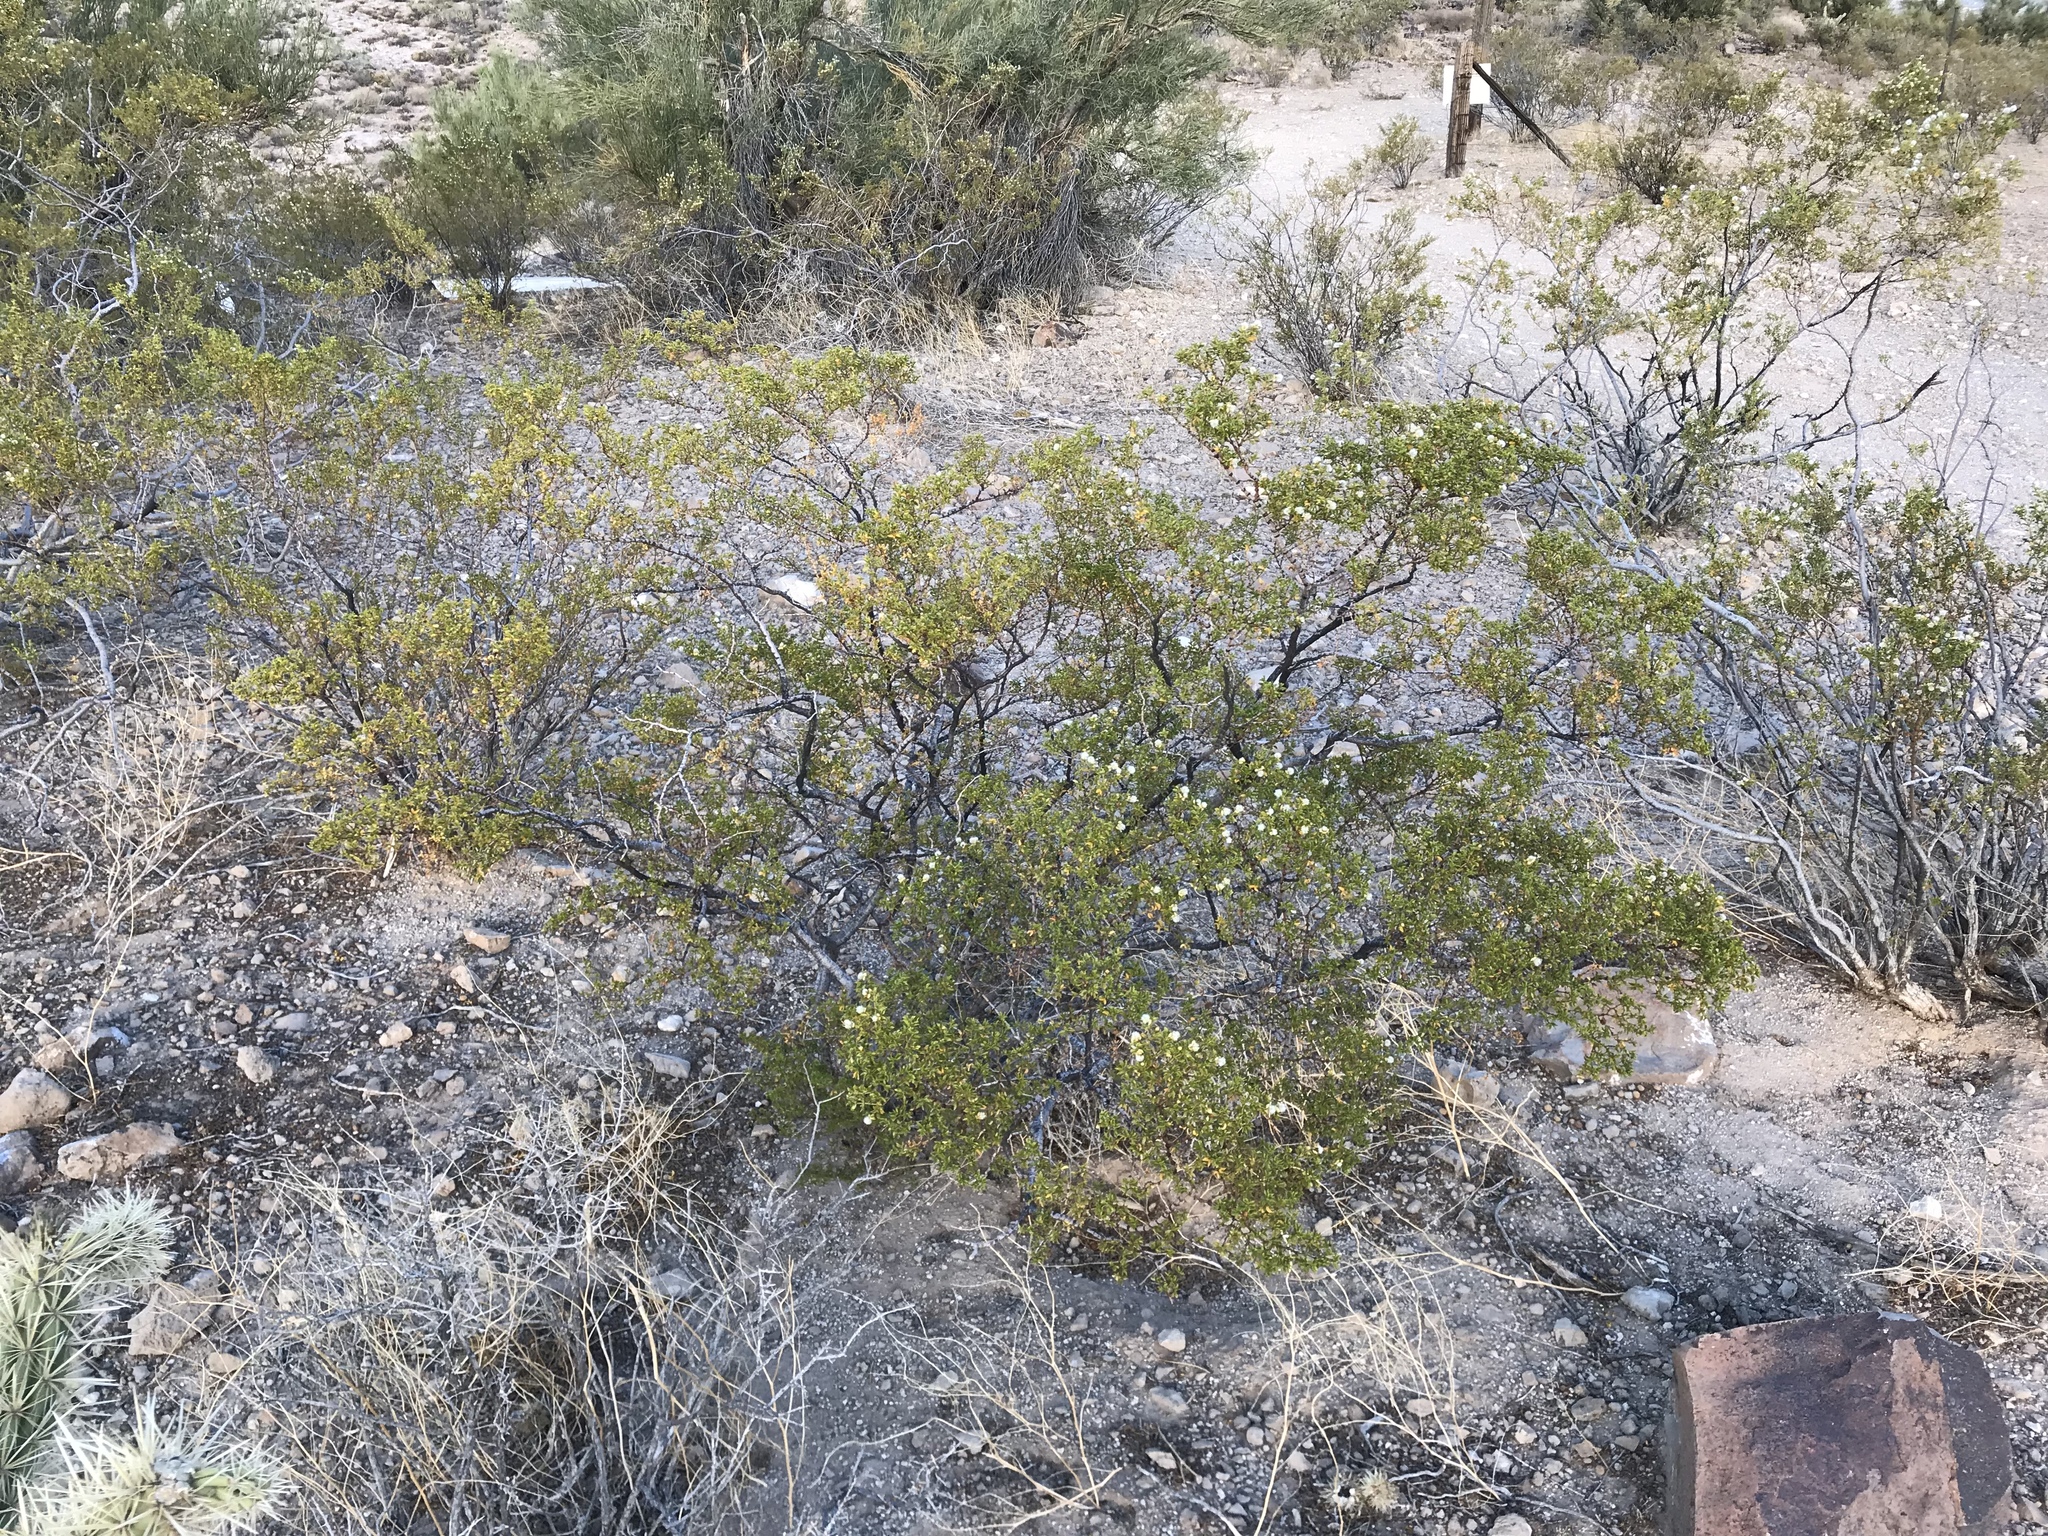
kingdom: Plantae
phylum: Tracheophyta
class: Magnoliopsida
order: Zygophyllales
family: Zygophyllaceae
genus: Larrea
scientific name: Larrea tridentata
